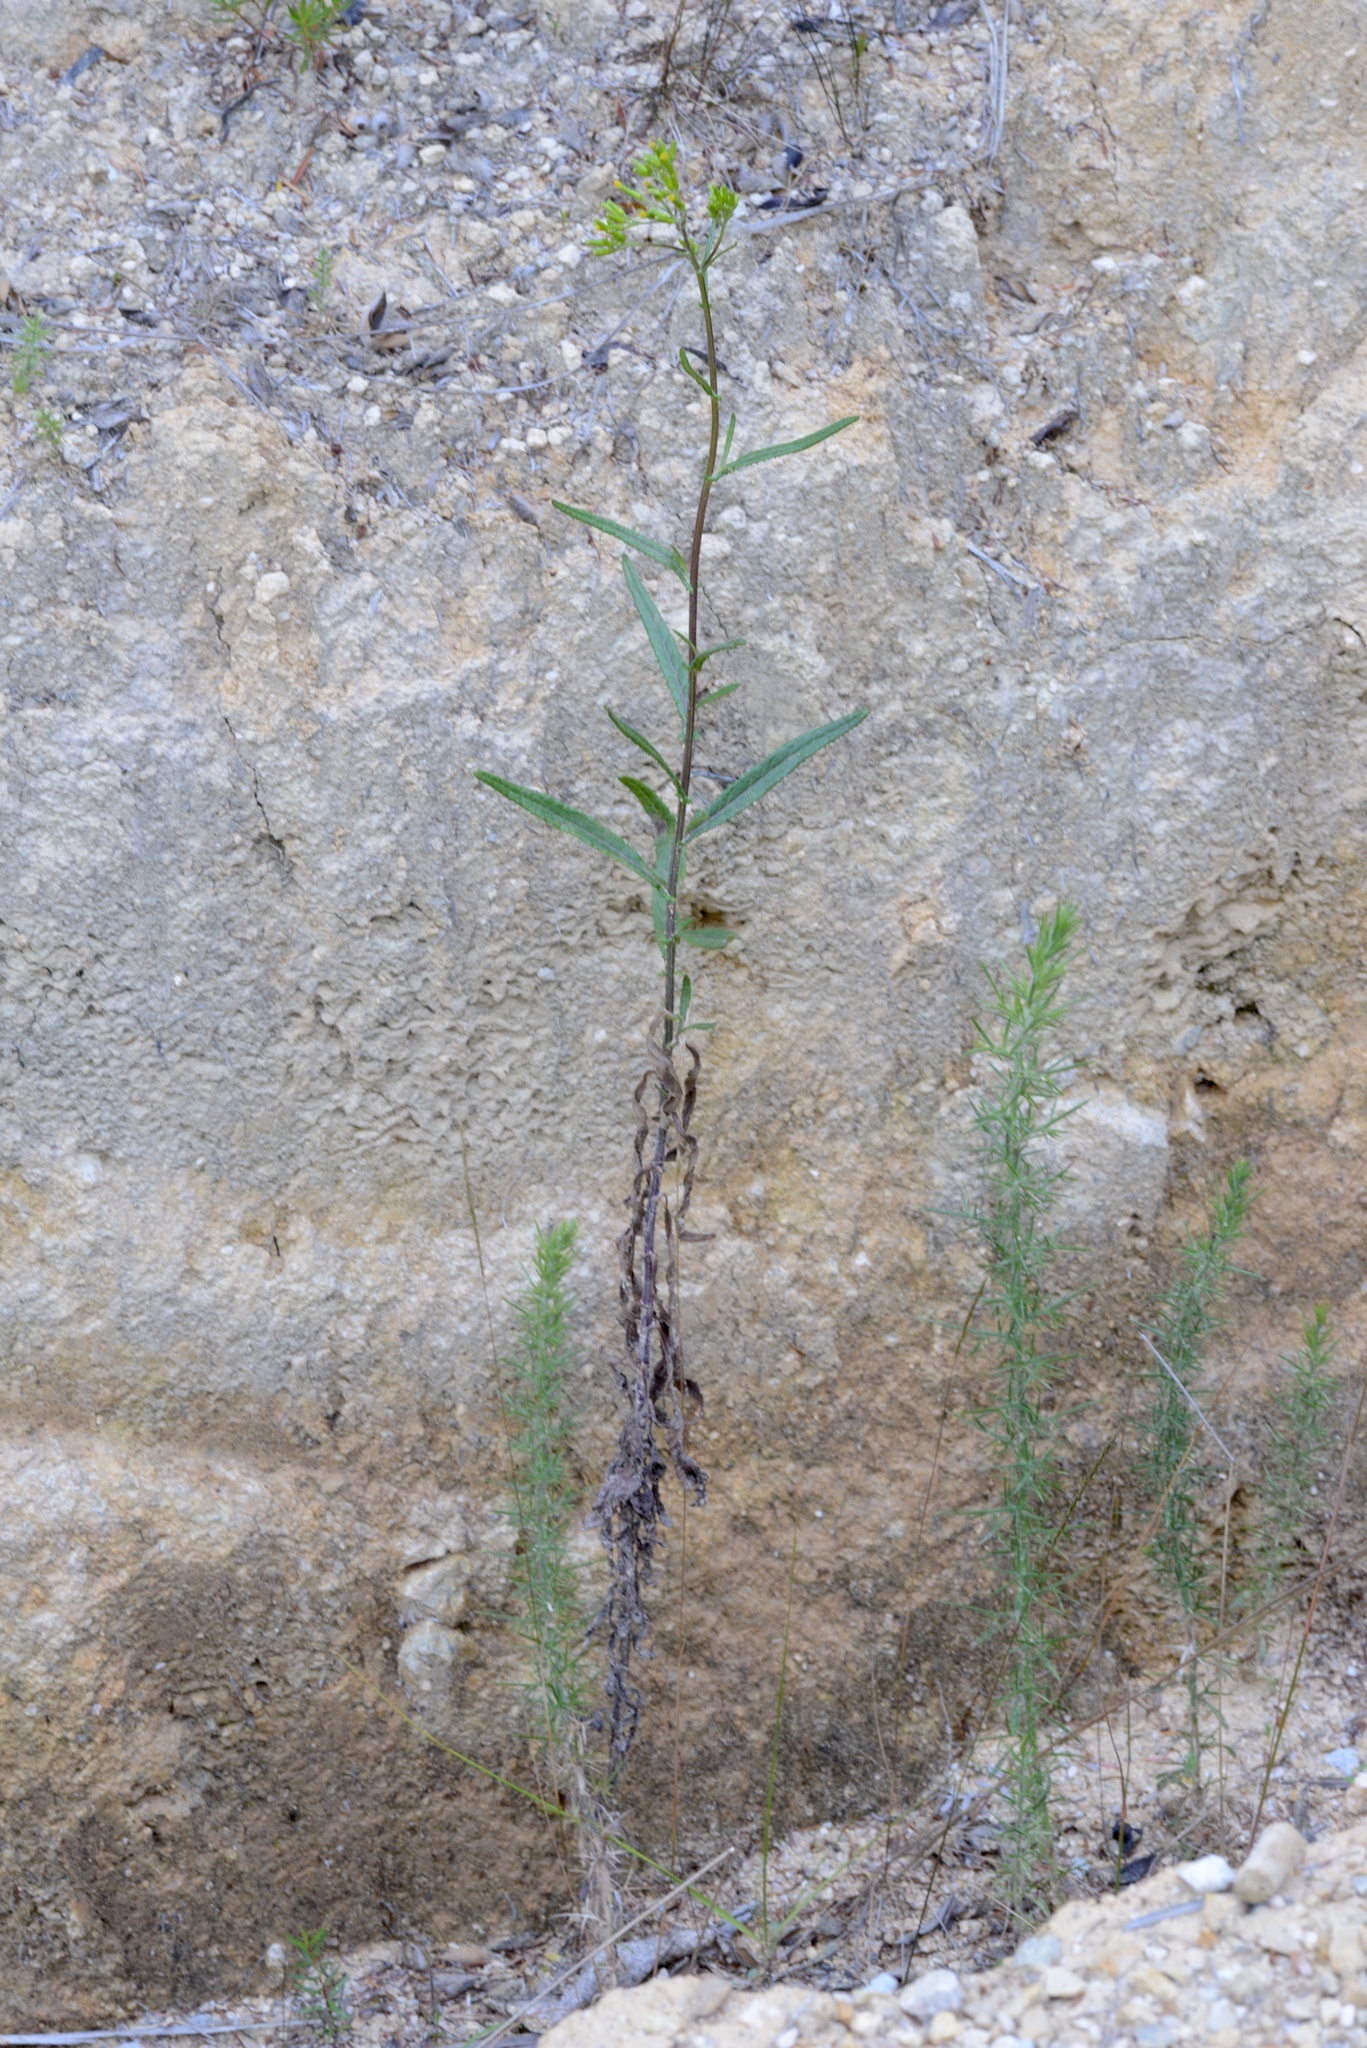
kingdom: Plantae
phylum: Tracheophyta
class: Magnoliopsida
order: Asterales
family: Asteraceae
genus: Senecio
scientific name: Senecio minimus
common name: Toothed fireweed
